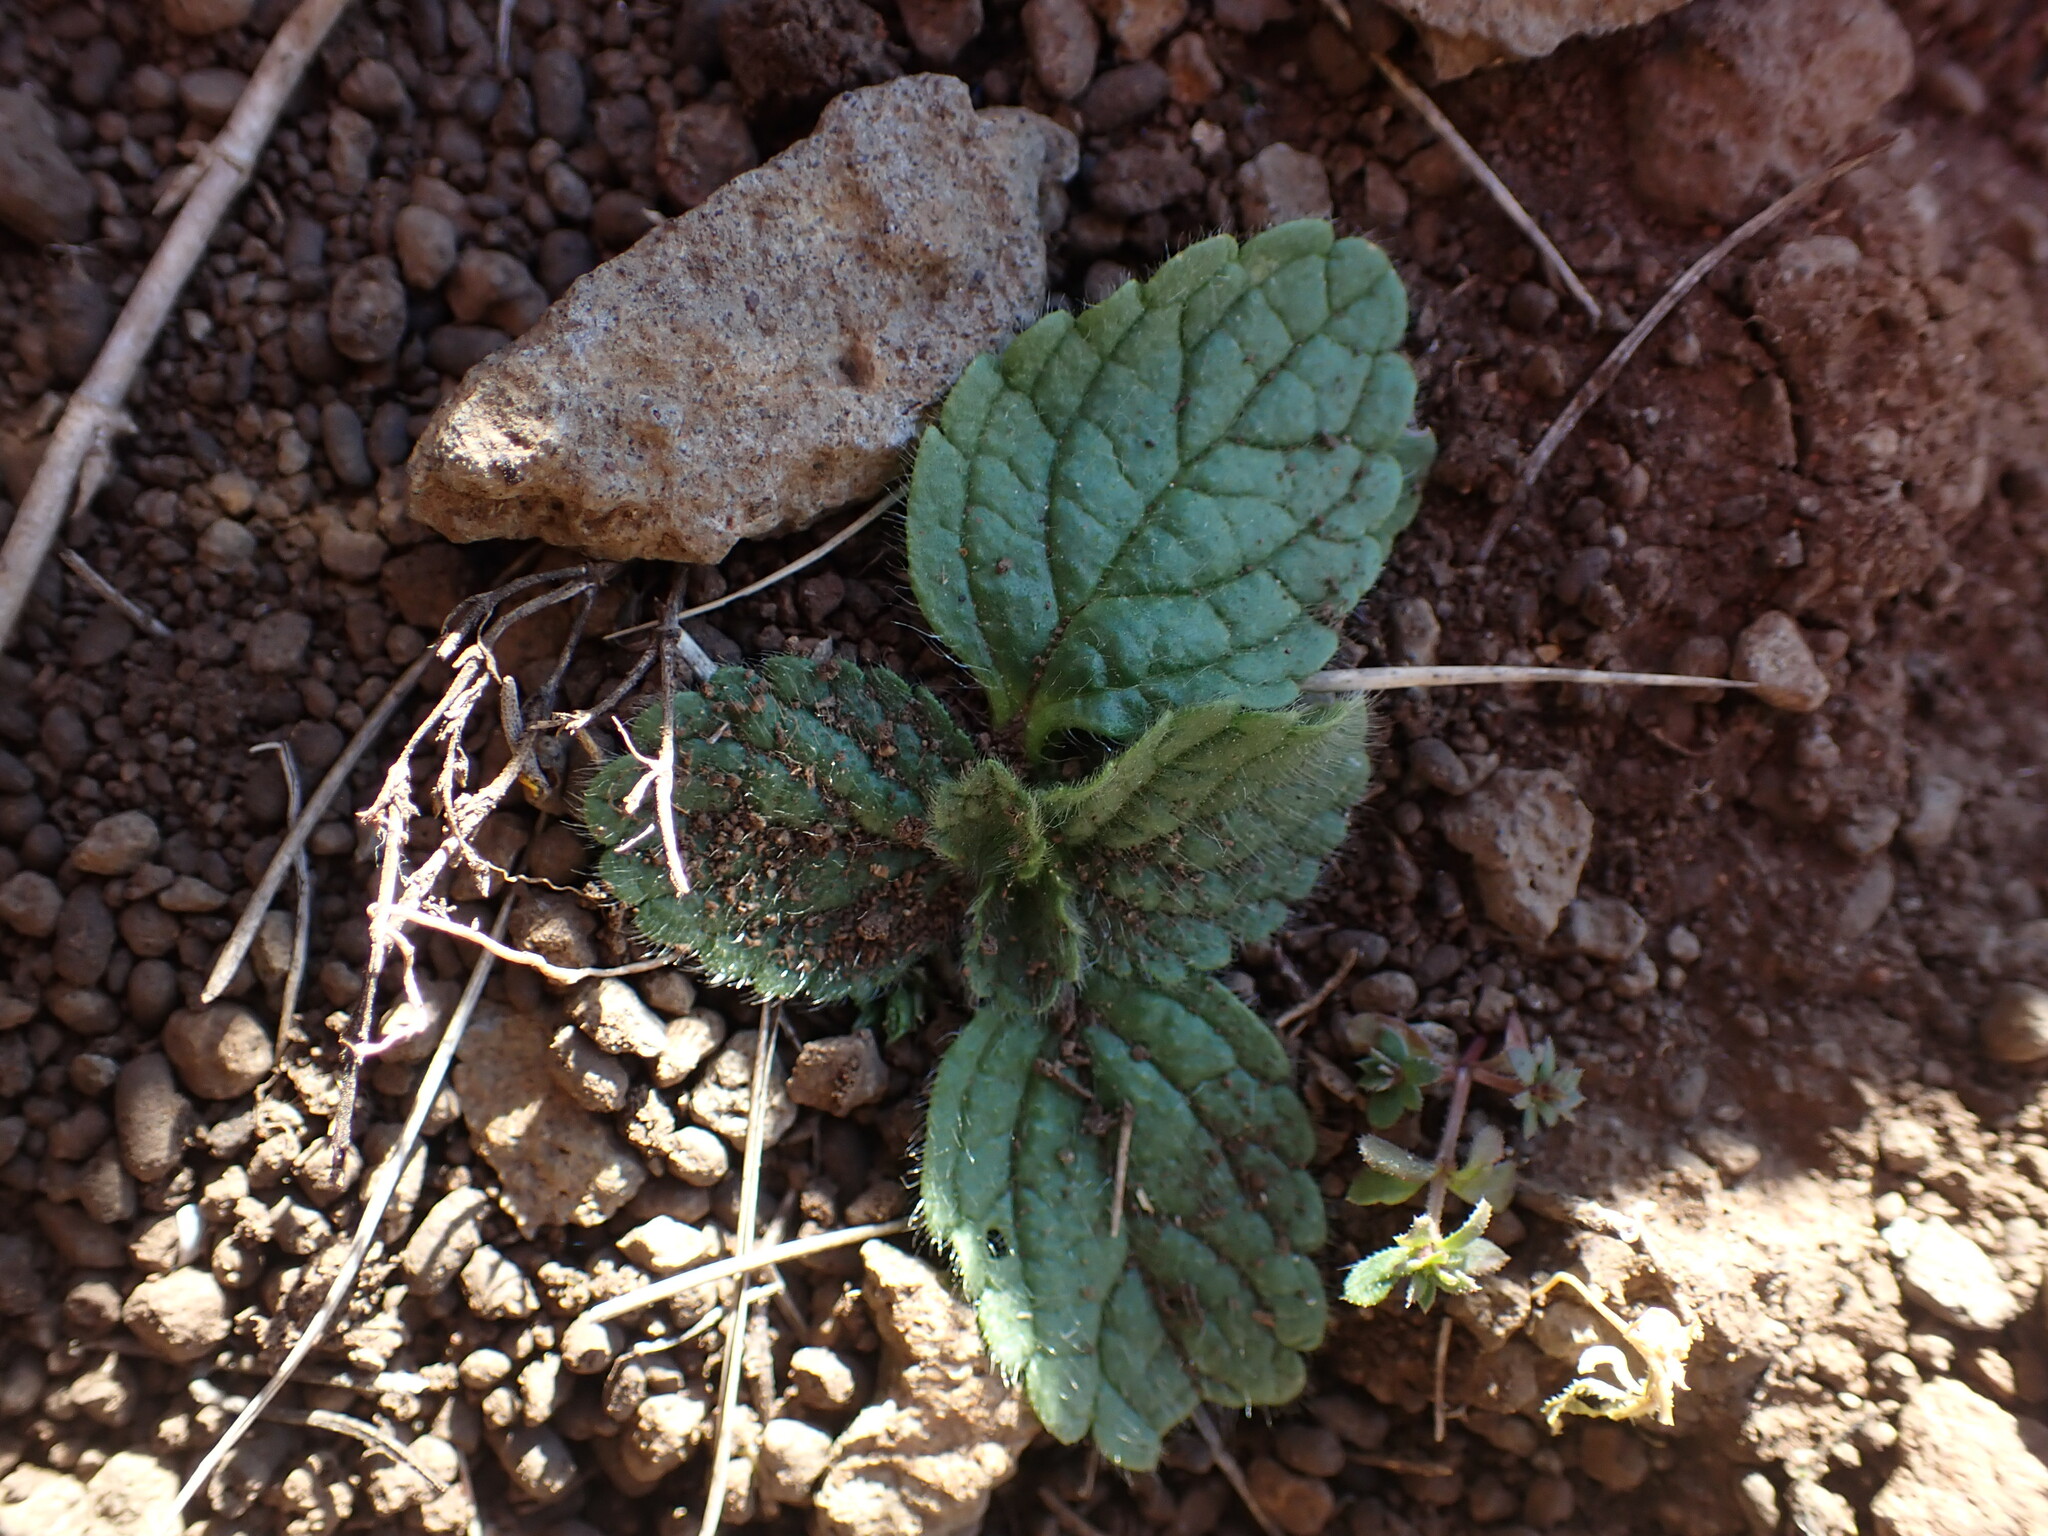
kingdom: Plantae
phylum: Tracheophyta
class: Magnoliopsida
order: Lamiales
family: Lamiaceae
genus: Sideritis
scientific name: Sideritis romana
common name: Simplebeak ironwort
